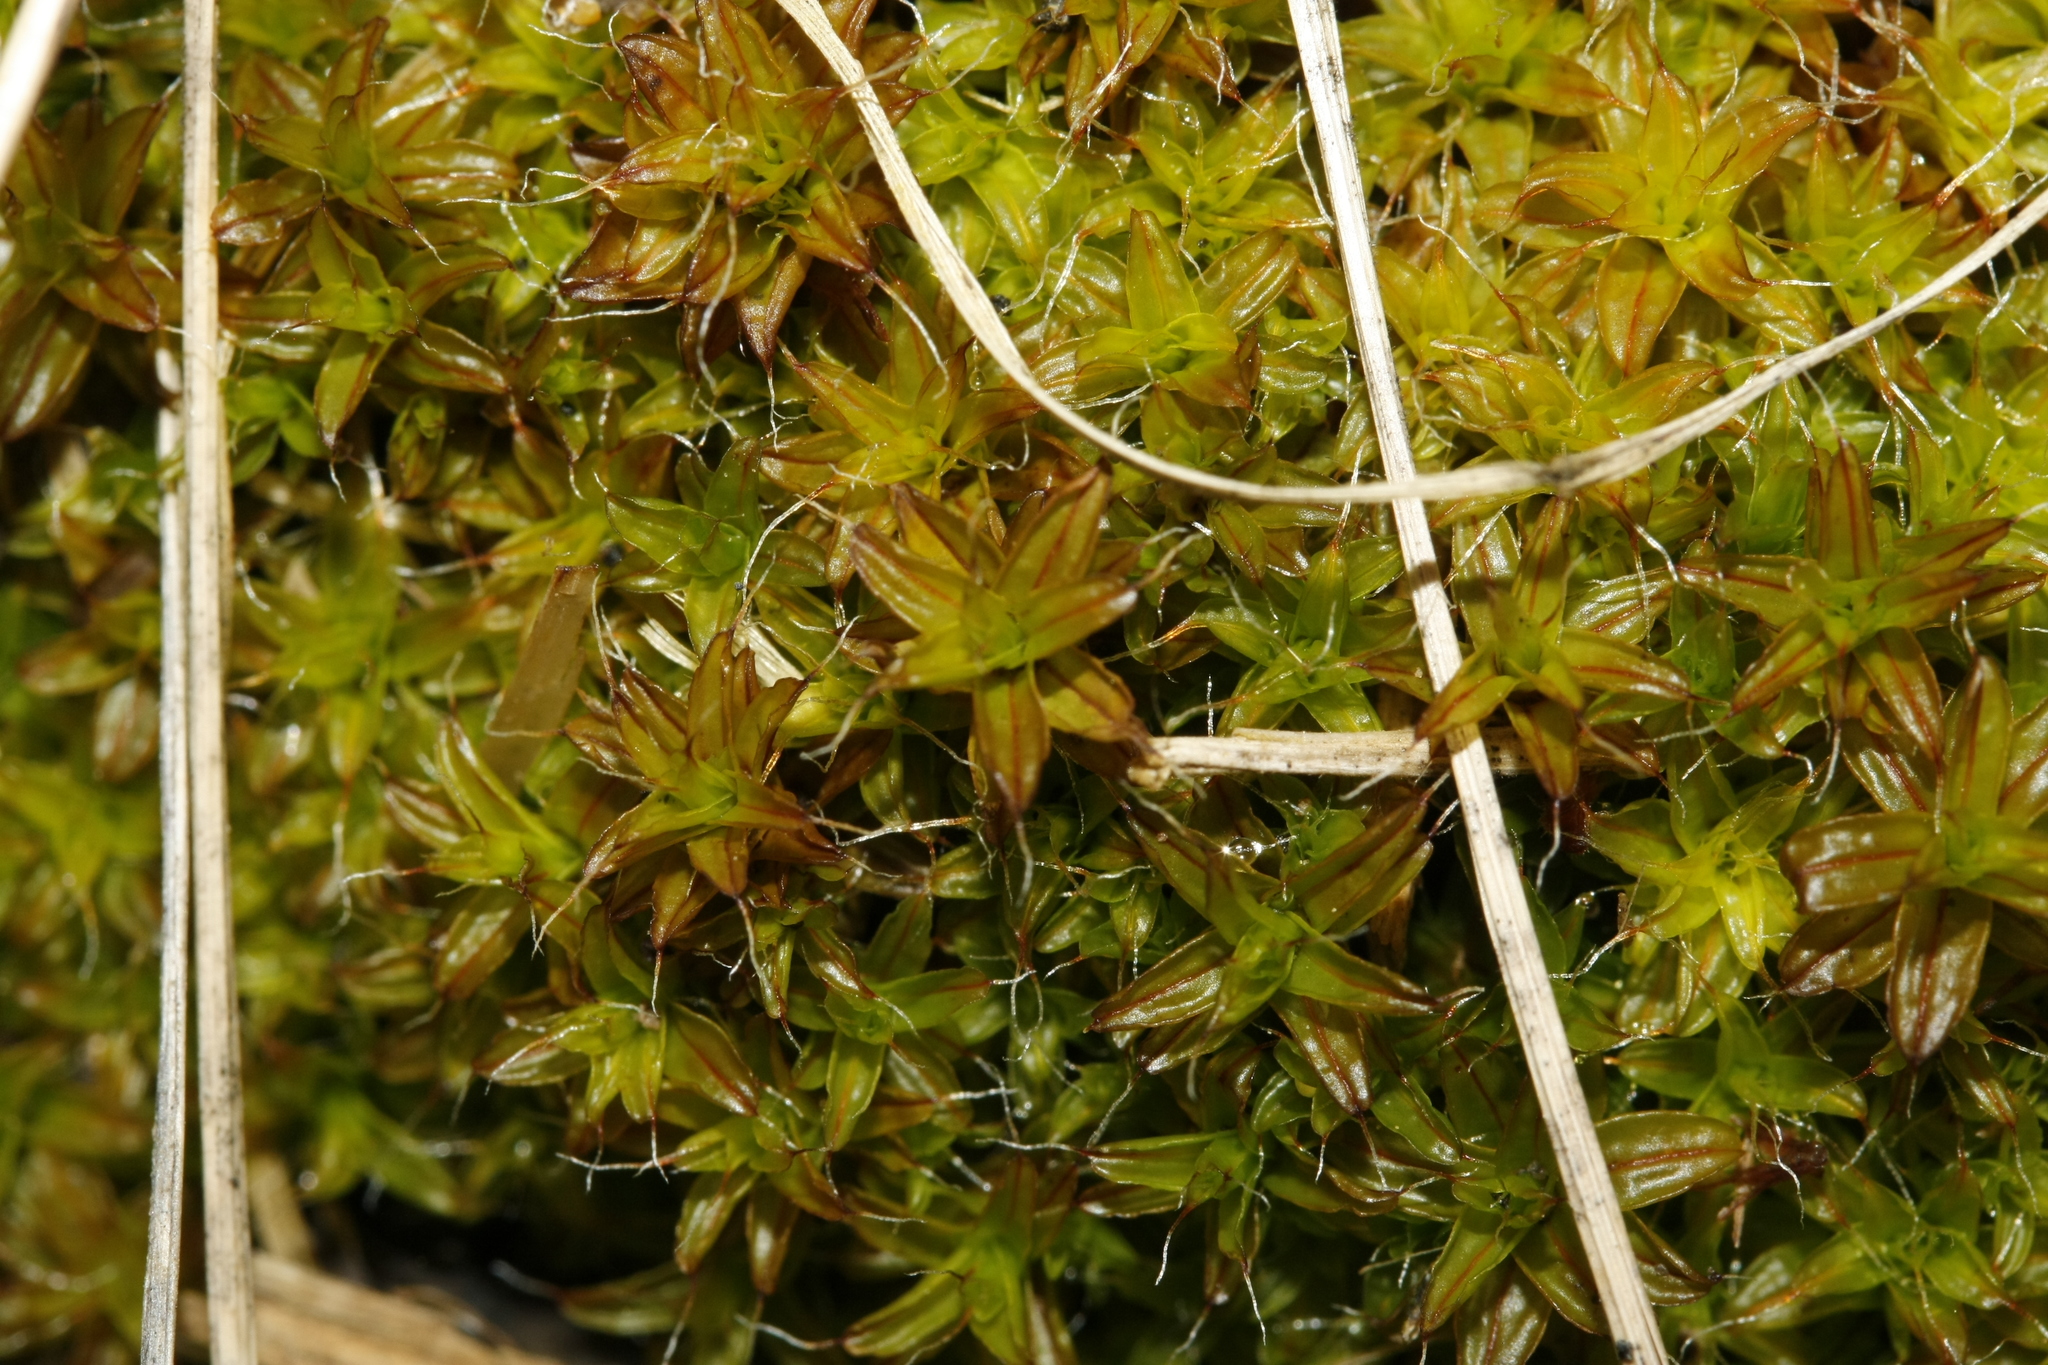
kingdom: Plantae
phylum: Bryophyta
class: Bryopsida
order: Pottiales
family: Pottiaceae
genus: Syntrichia
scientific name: Syntrichia ruralis
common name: Sidewalk screw moss
